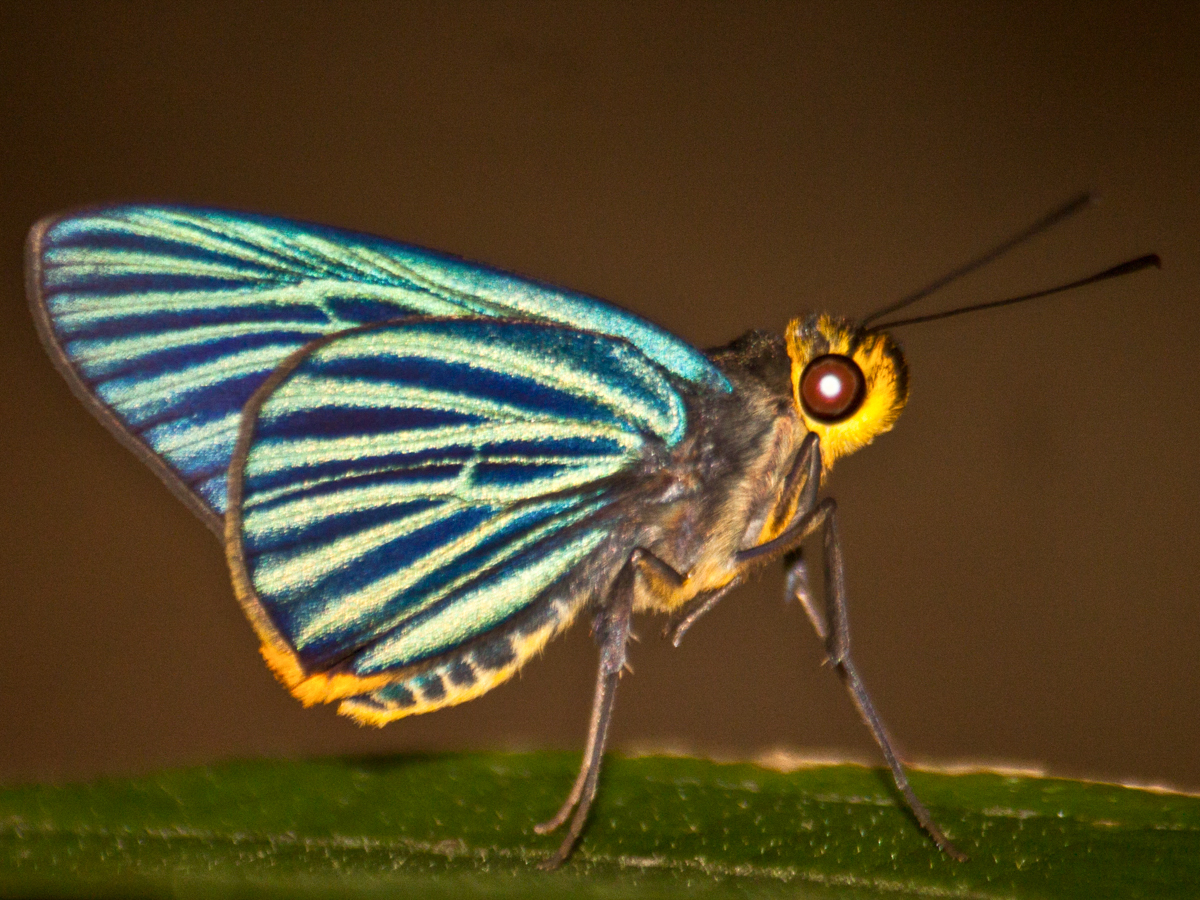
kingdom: Animalia
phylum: Arthropoda
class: Insecta
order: Lepidoptera
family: Hesperiidae
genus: Pirdana
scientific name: Pirdana hyela
